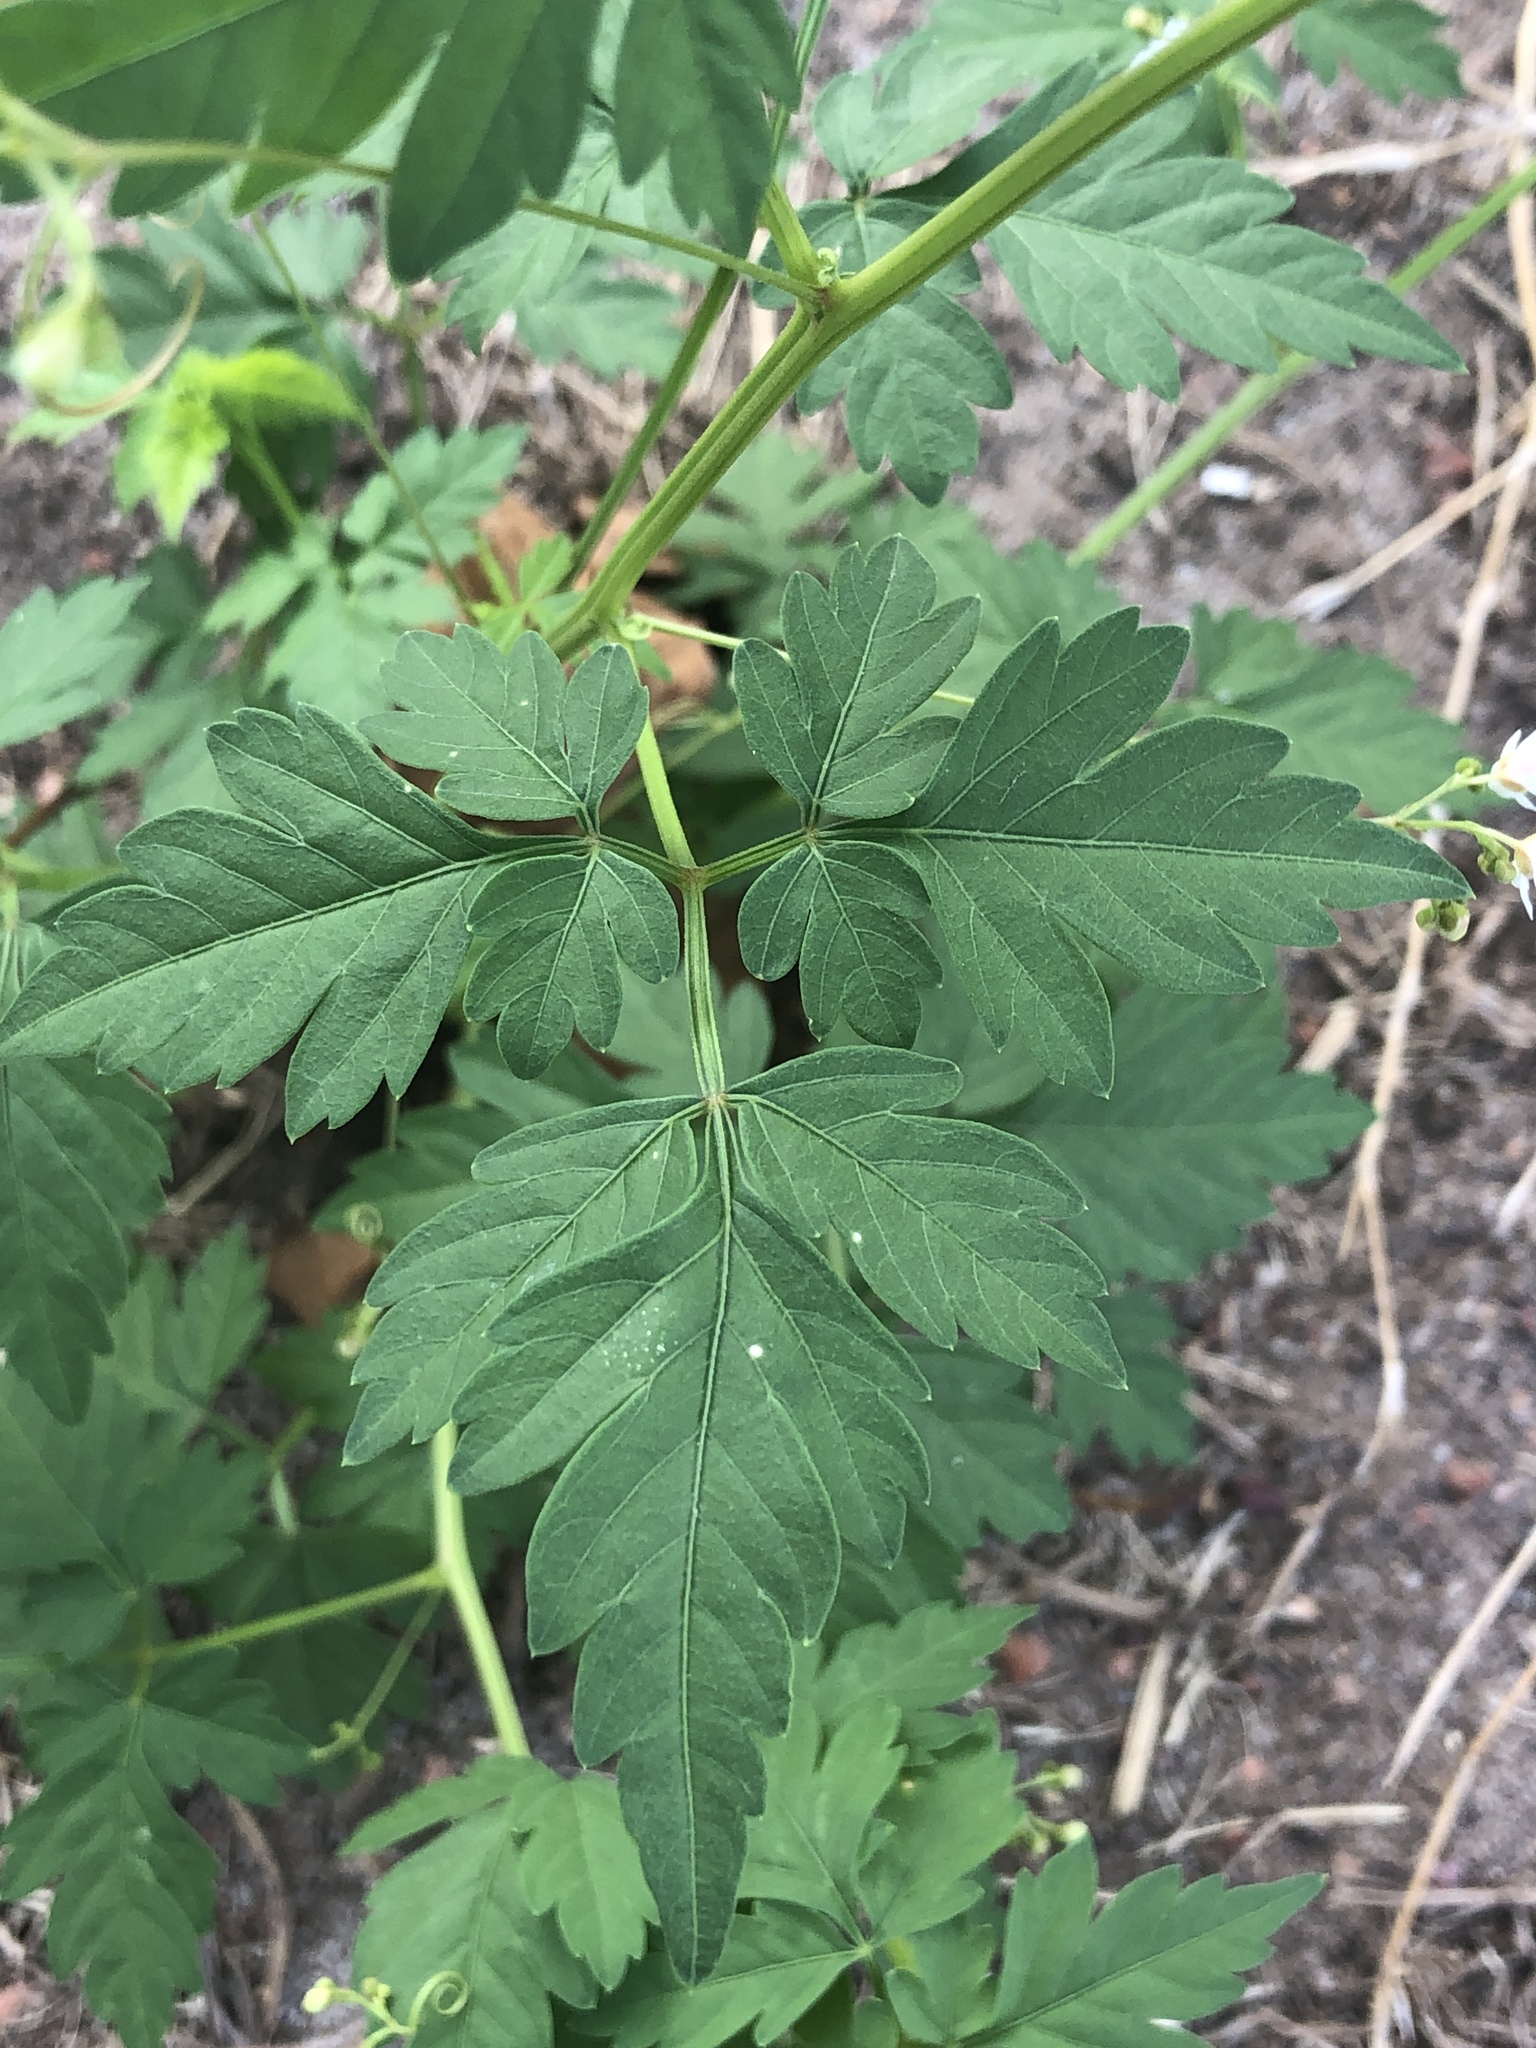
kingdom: Plantae
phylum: Tracheophyta
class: Magnoliopsida
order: Sapindales
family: Sapindaceae
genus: Cardiospermum
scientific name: Cardiospermum halicacabum
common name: Balloon vine
